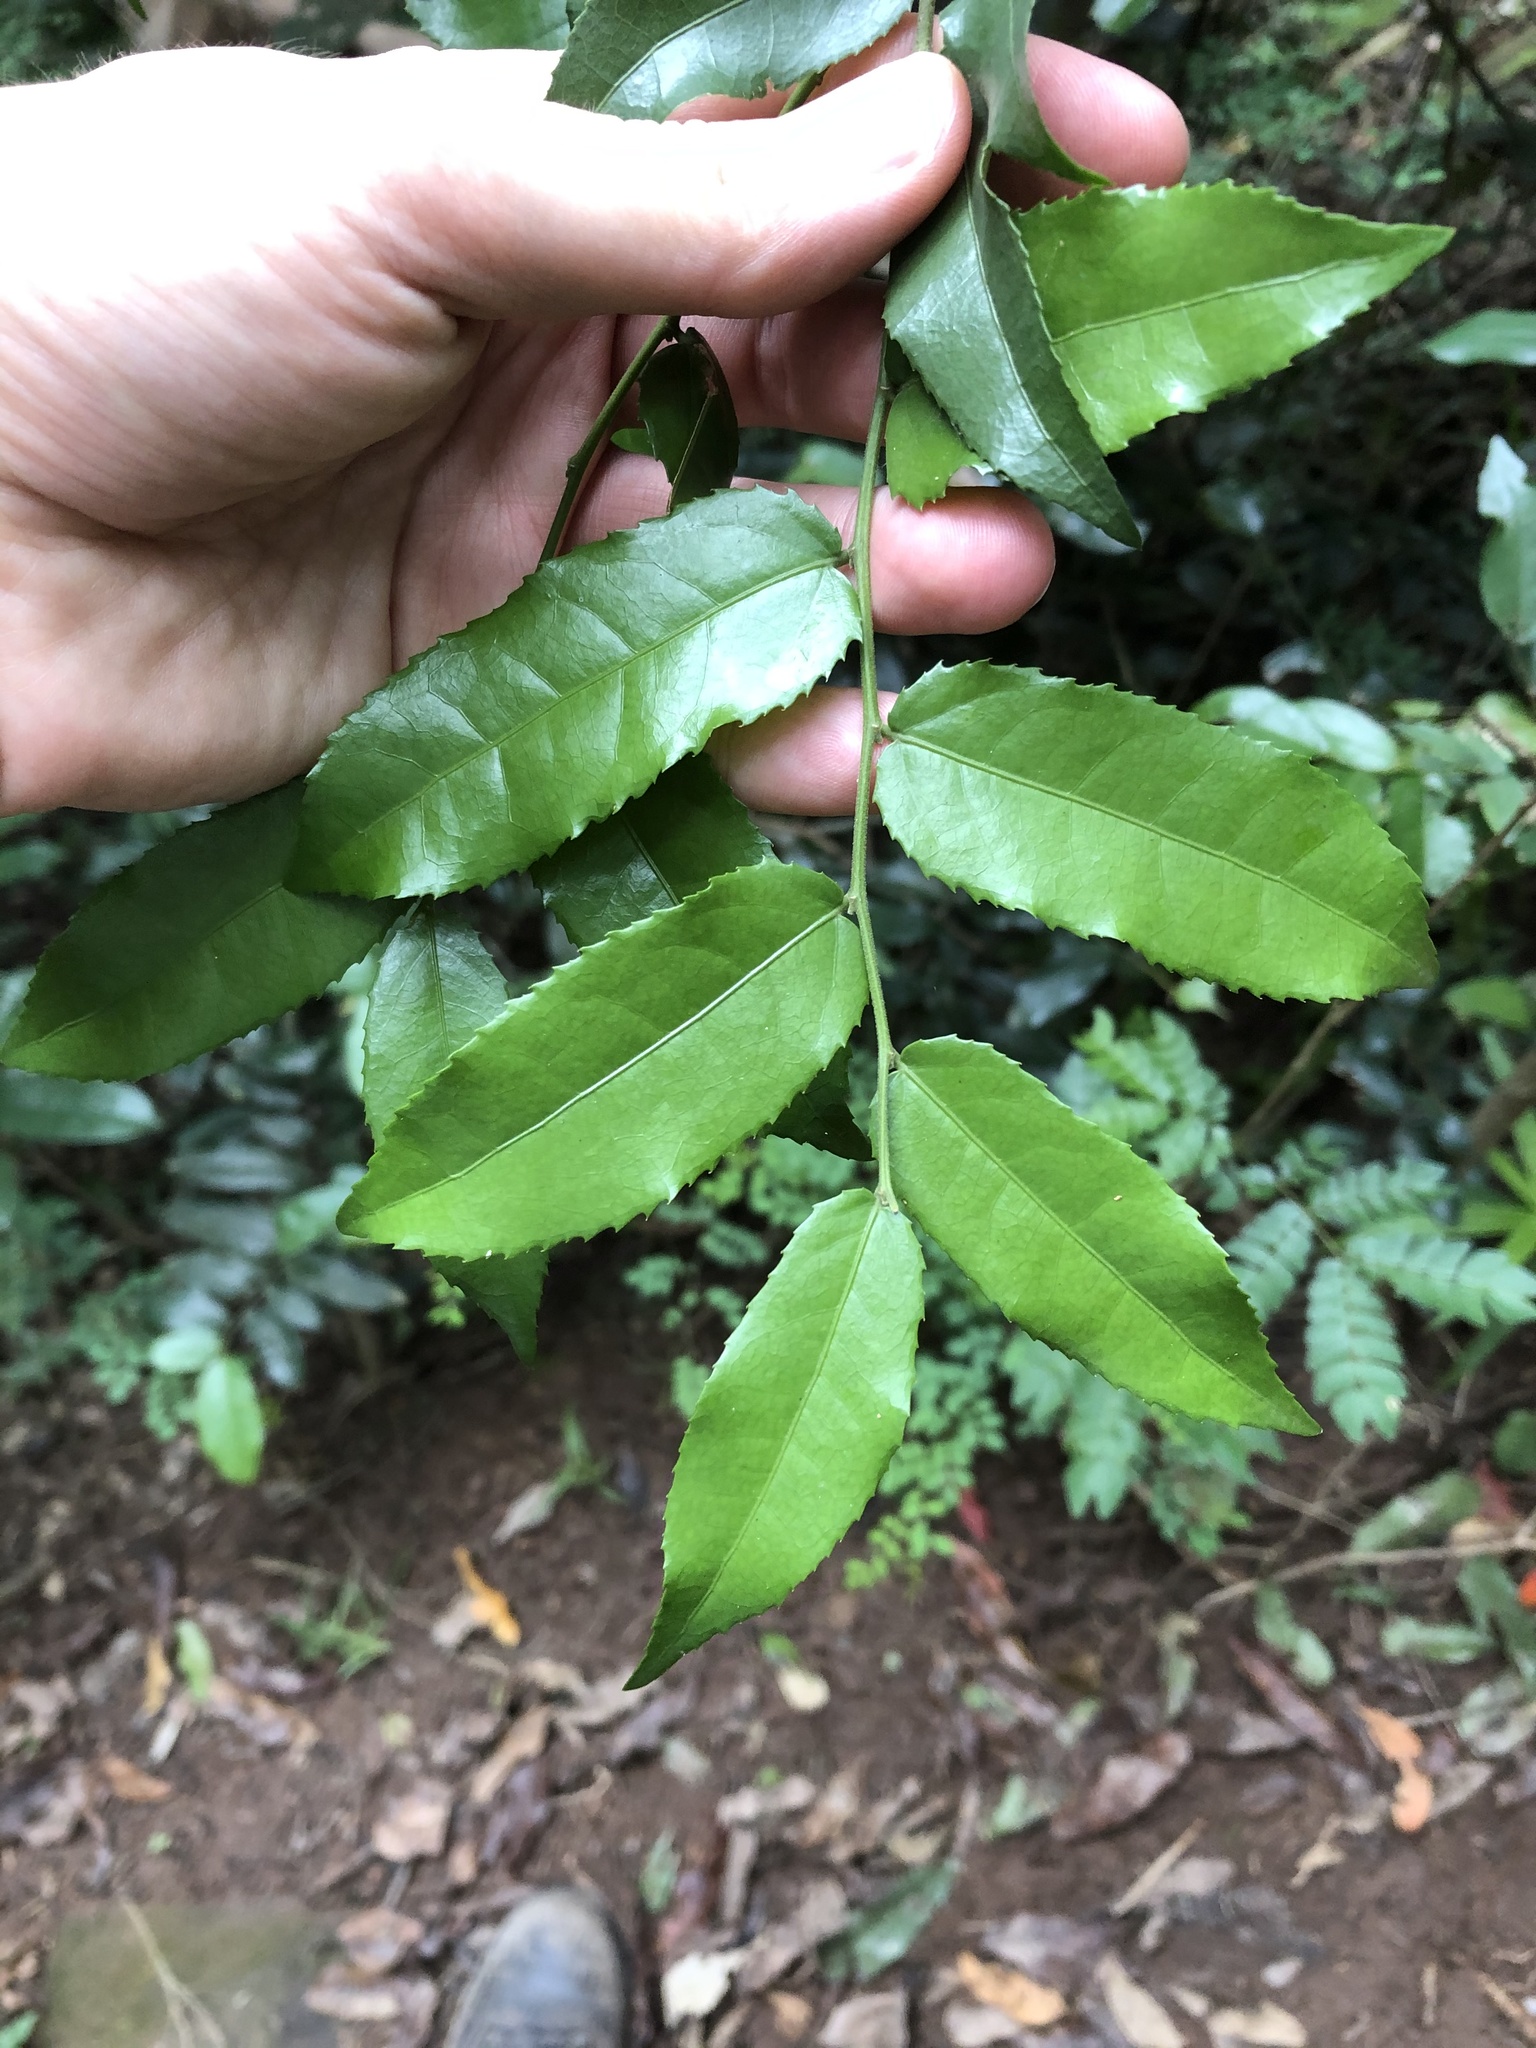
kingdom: Plantae
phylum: Tracheophyta
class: Magnoliopsida
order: Malpighiales
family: Putranjivaceae
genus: Drypetes
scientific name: Drypetes arguta
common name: Water ironplum
